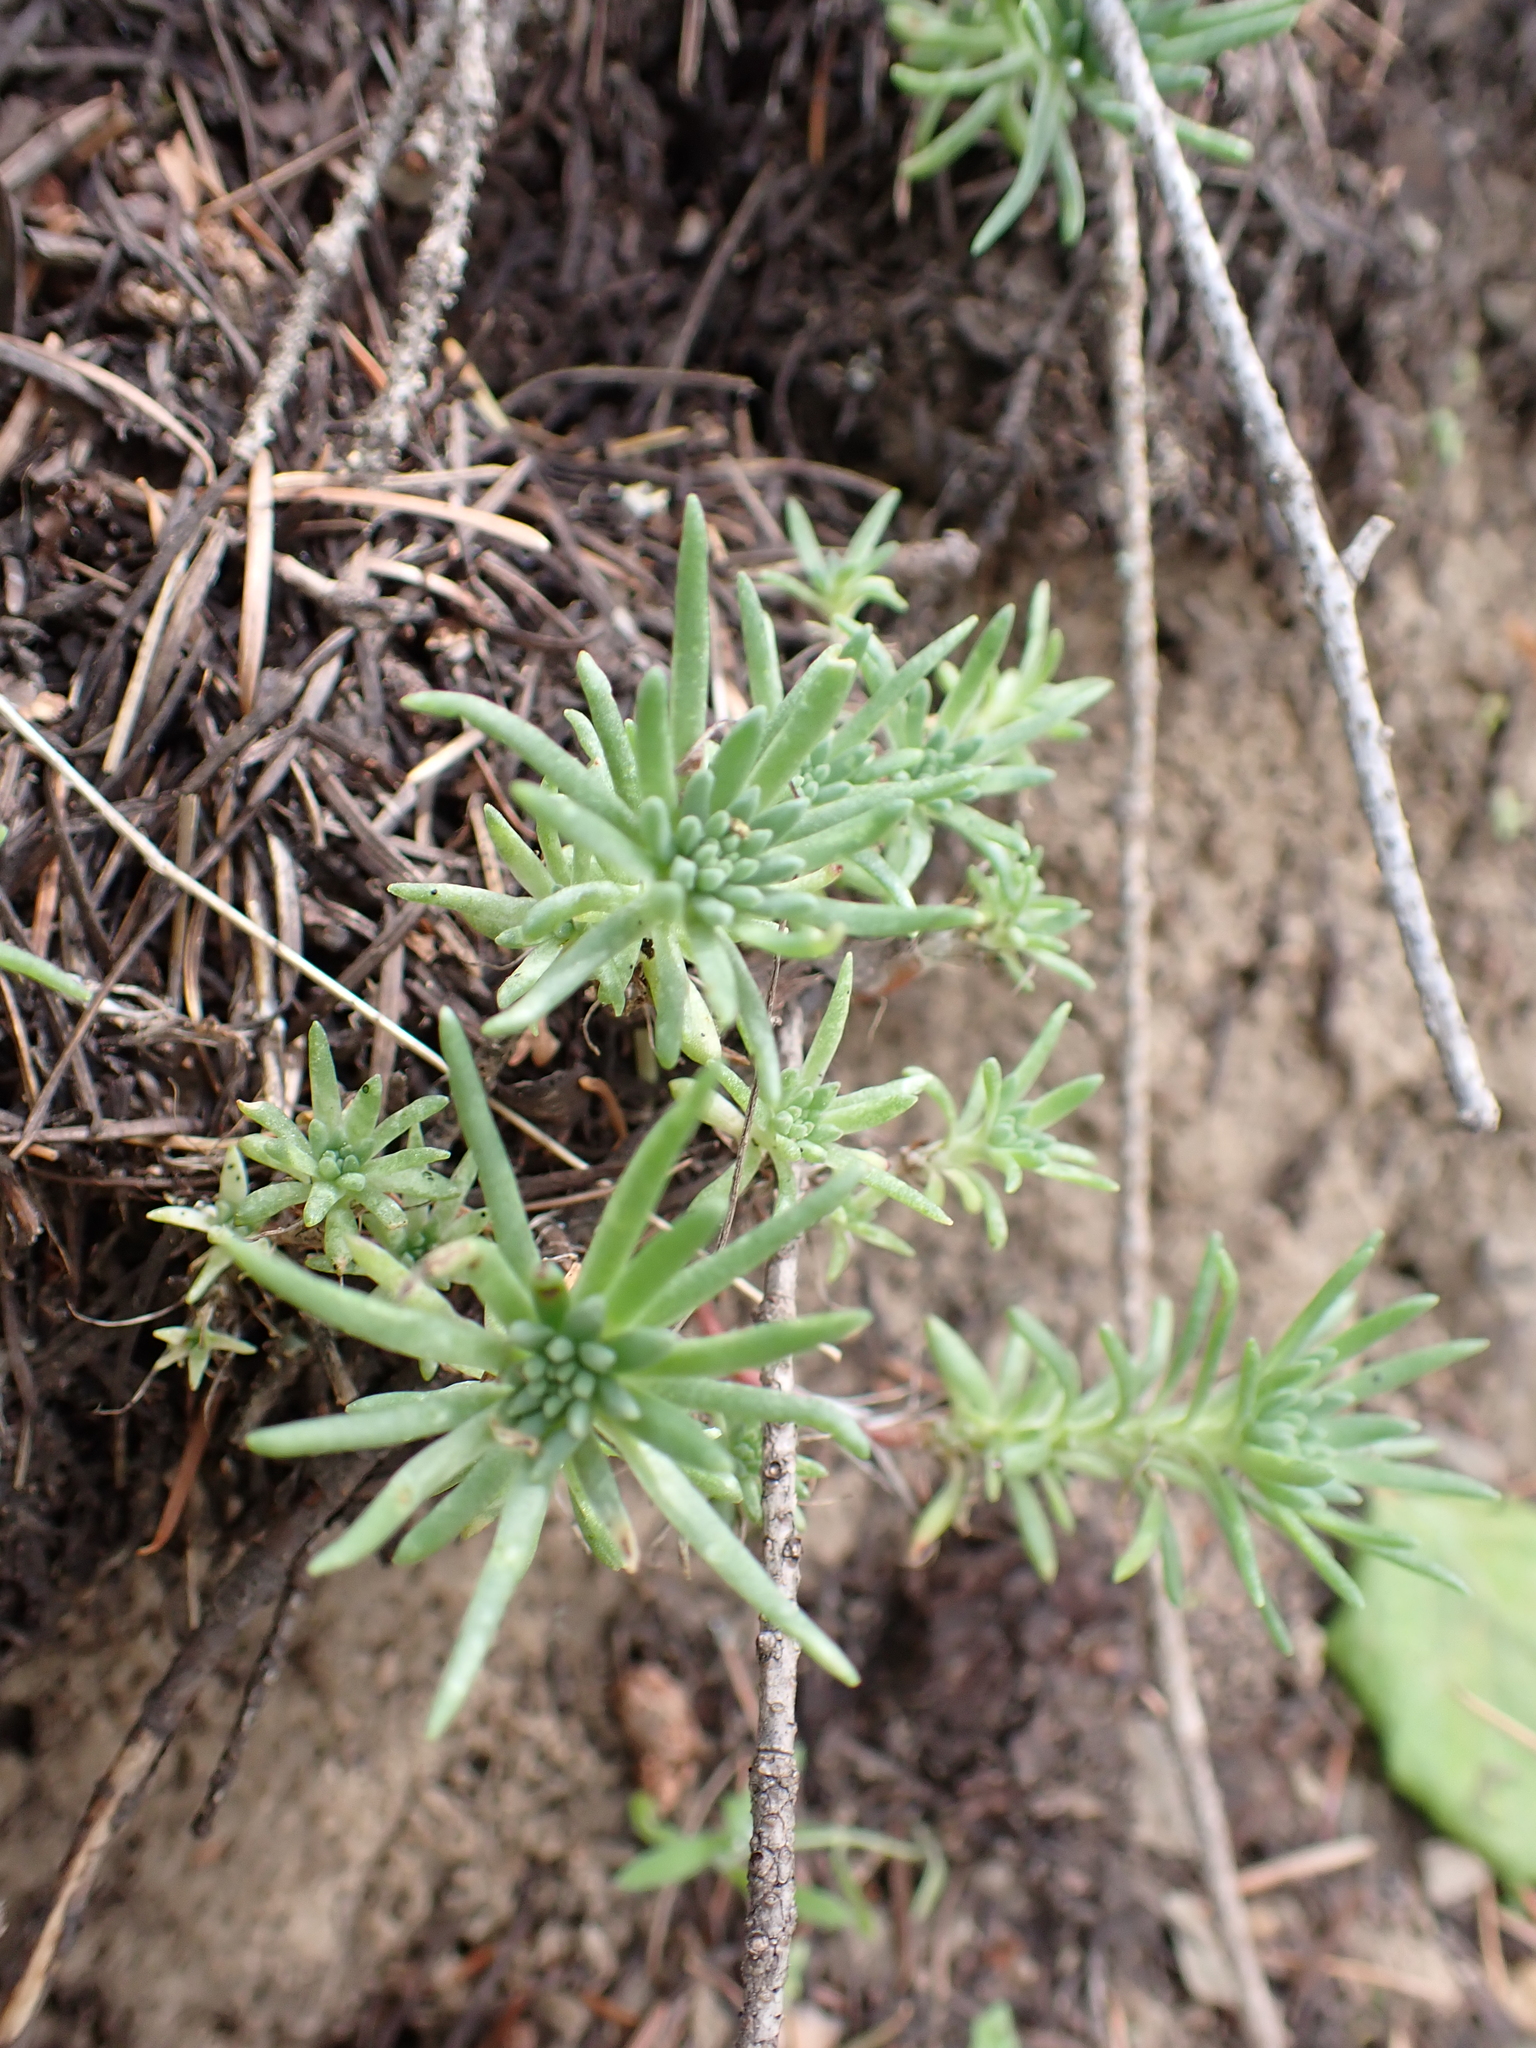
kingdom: Plantae
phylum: Tracheophyta
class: Magnoliopsida
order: Saxifragales
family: Crassulaceae
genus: Sedum
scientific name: Sedum stenopetalum
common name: Narrow-petaled stonecrop
